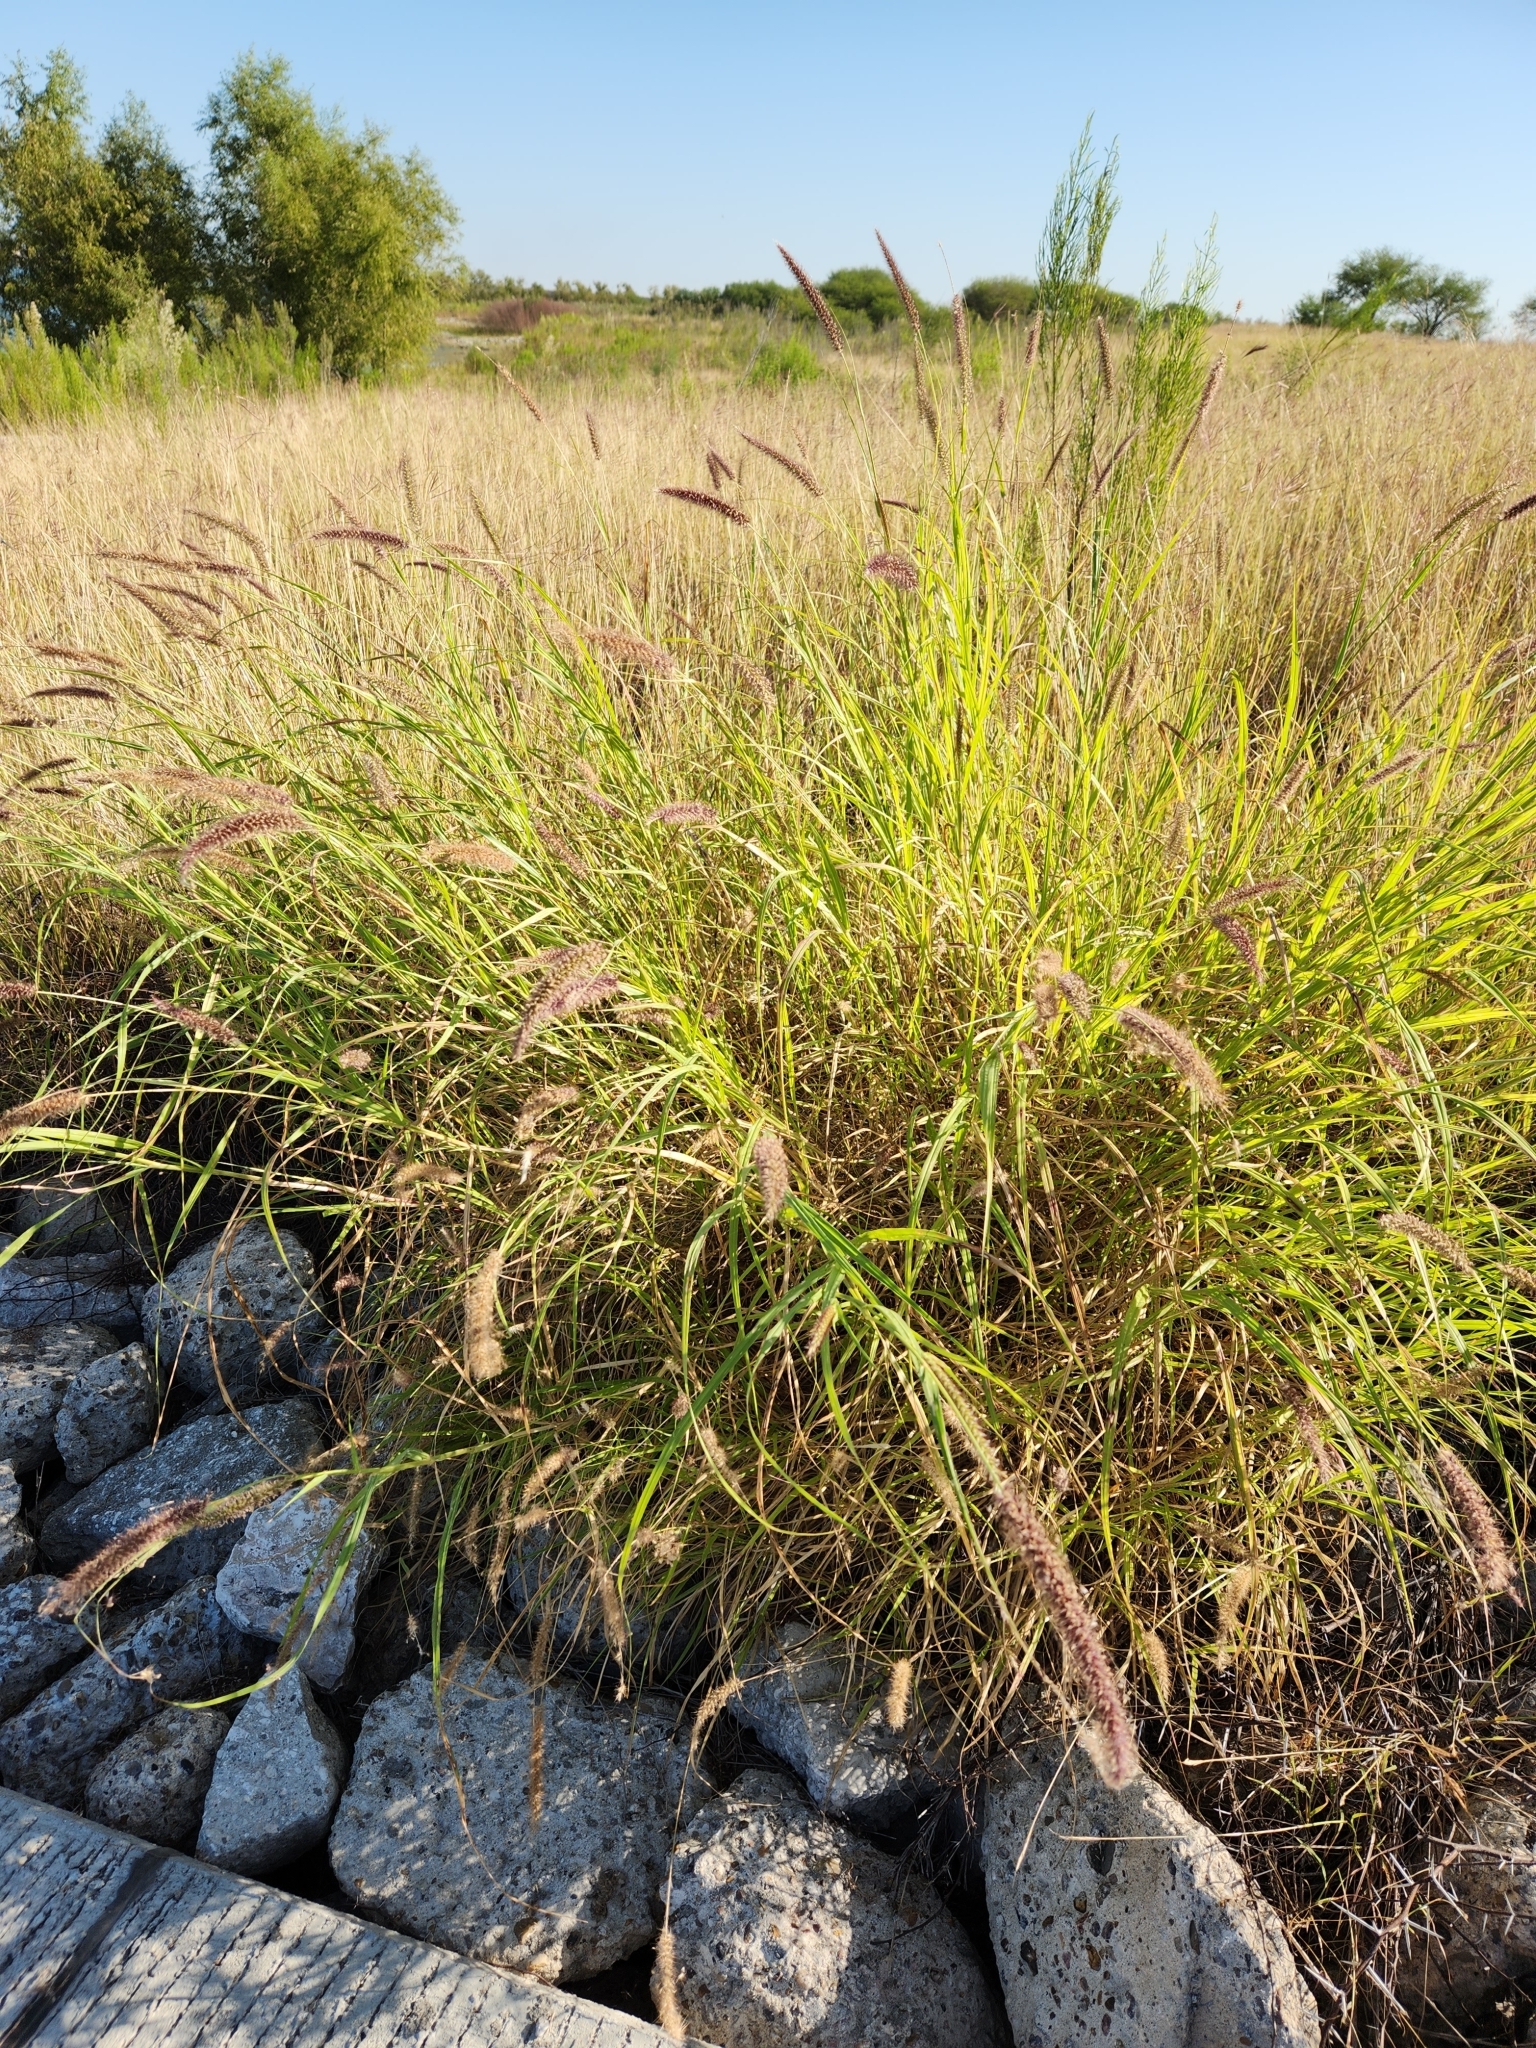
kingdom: Plantae
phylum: Tracheophyta
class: Liliopsida
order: Poales
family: Poaceae
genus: Cenchrus
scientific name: Cenchrus ciliaris
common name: Buffelgrass
